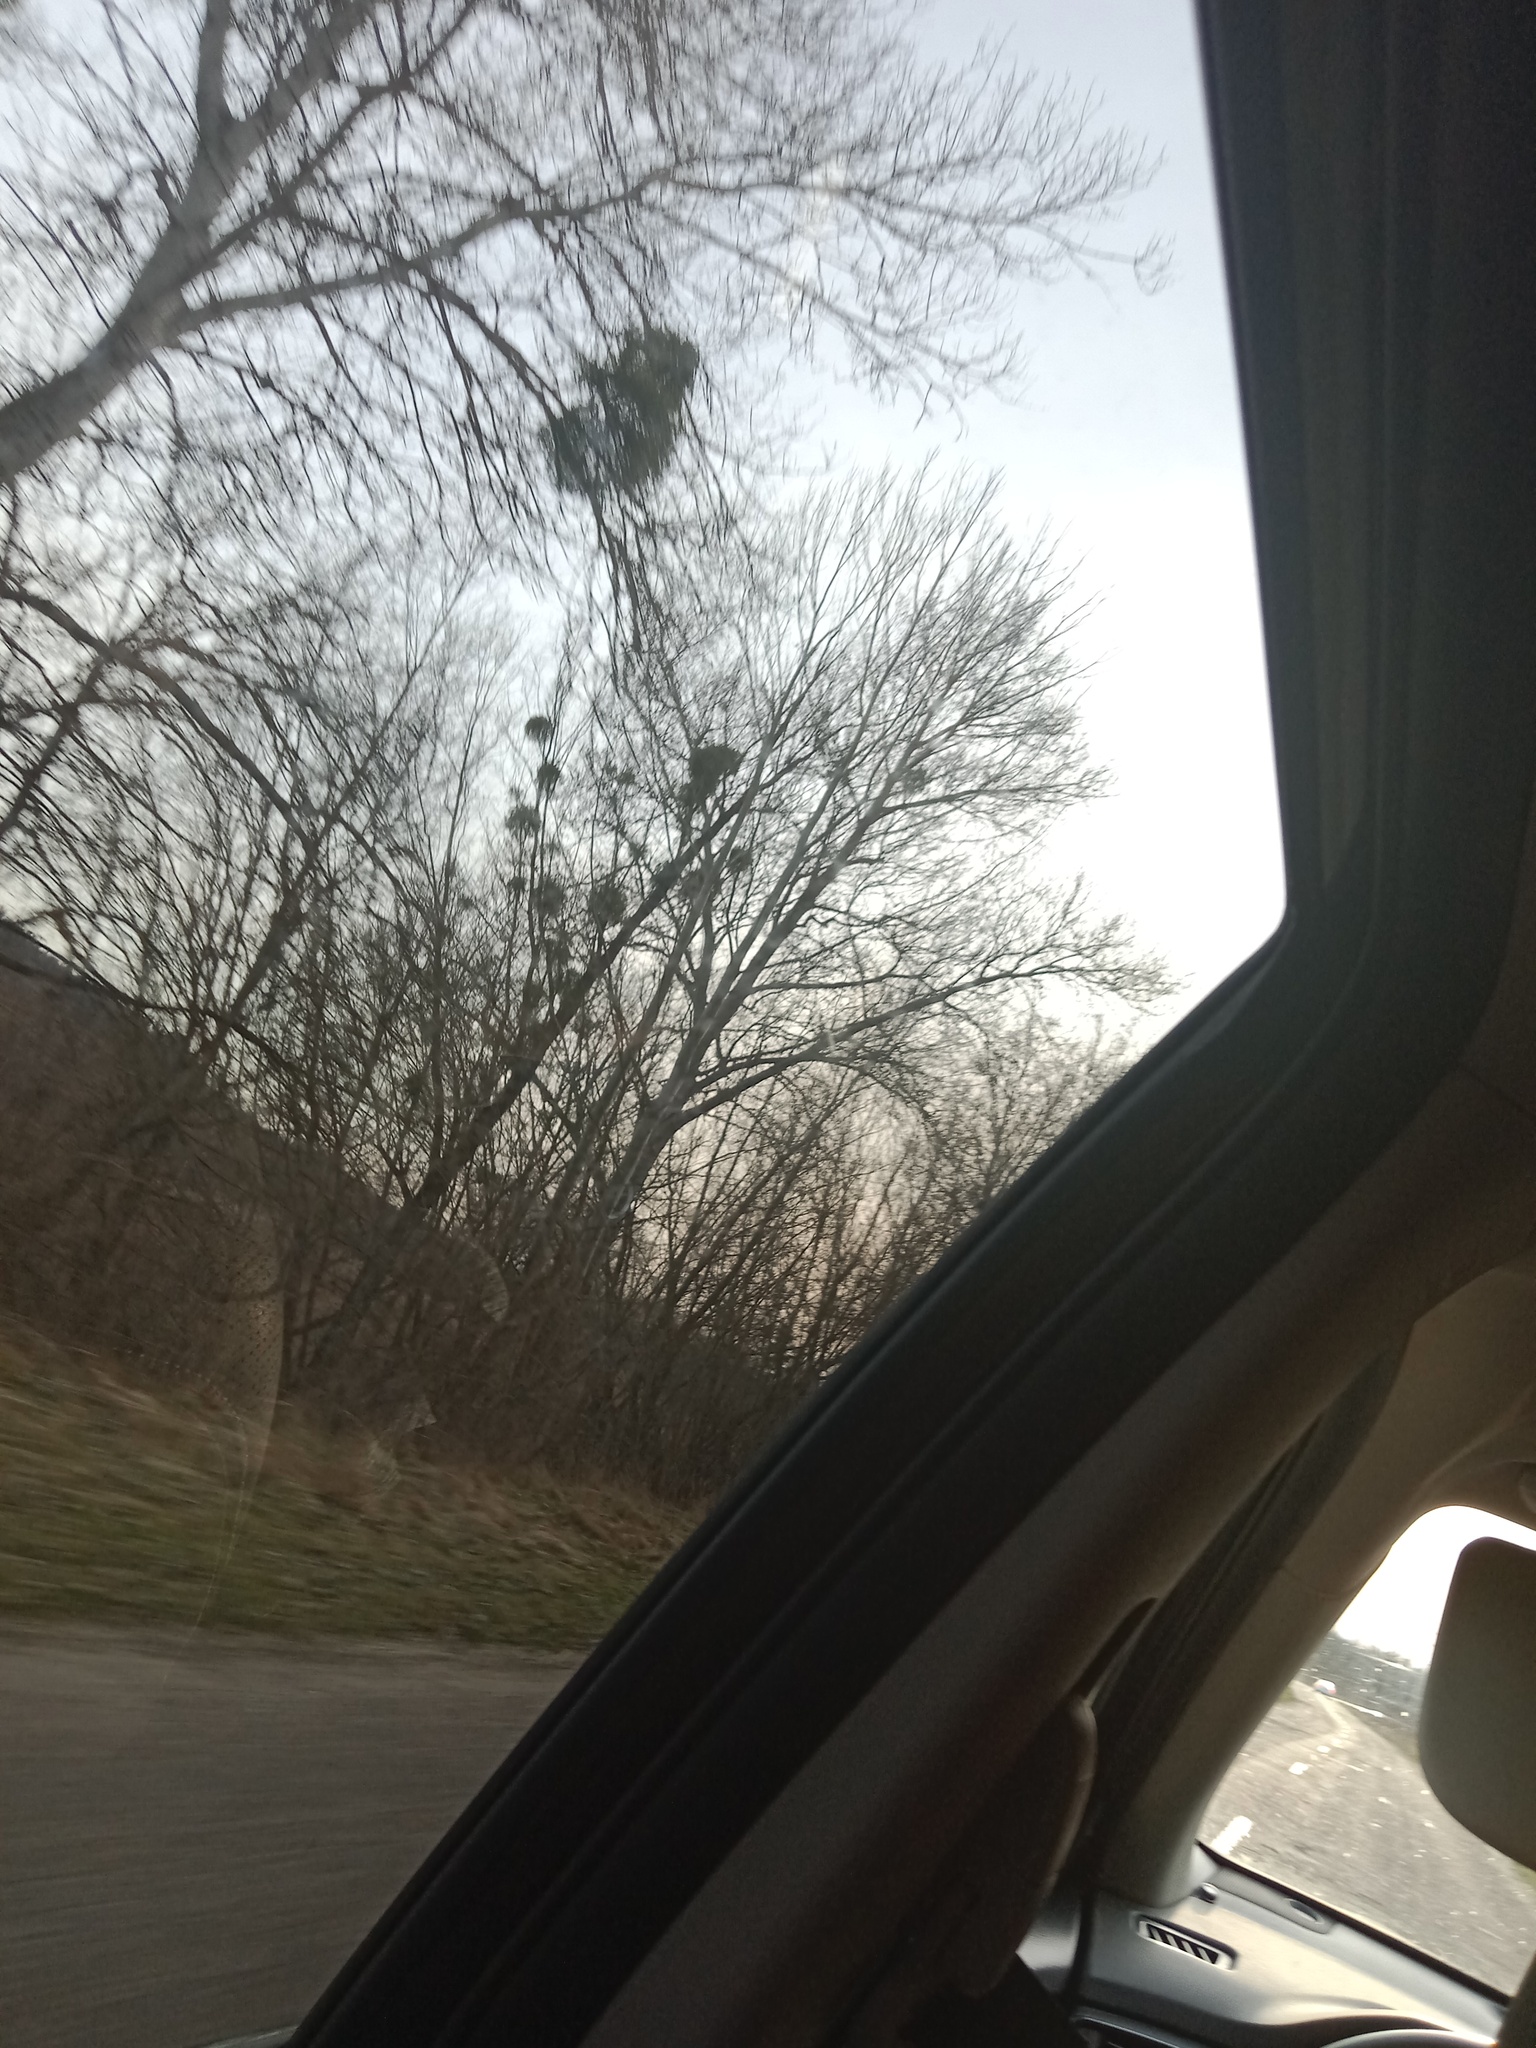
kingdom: Plantae
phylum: Tracheophyta
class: Magnoliopsida
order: Santalales
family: Viscaceae
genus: Viscum
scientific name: Viscum album
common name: Mistletoe
